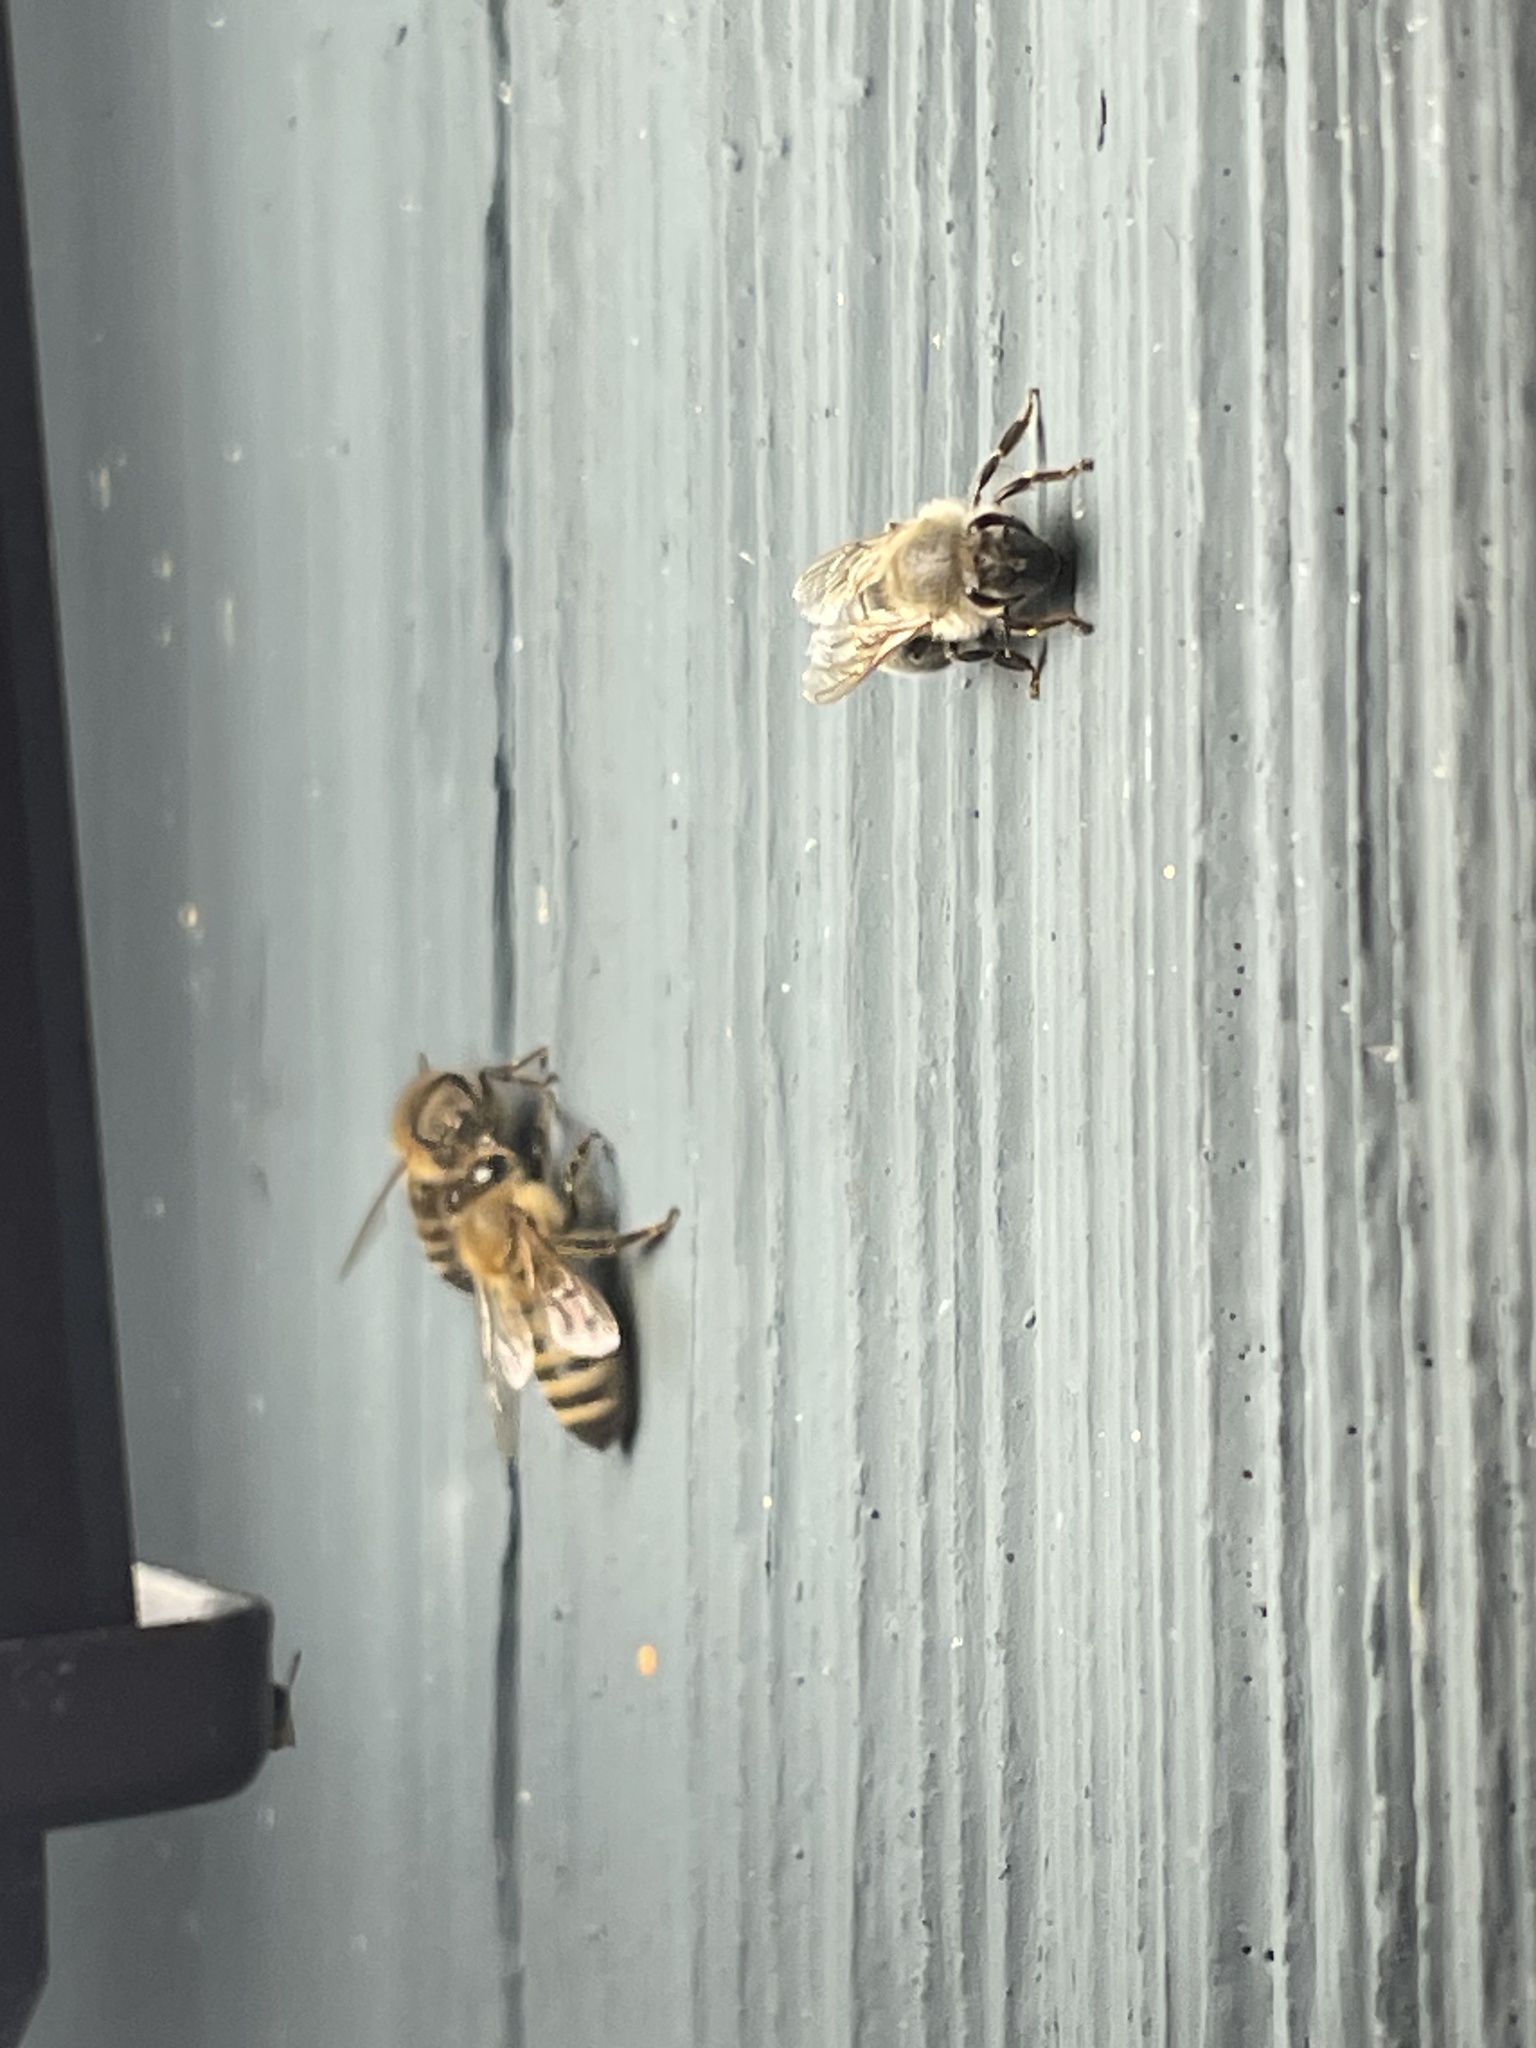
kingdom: Animalia
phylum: Arthropoda
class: Insecta
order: Hymenoptera
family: Apidae
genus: Apis
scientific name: Apis mellifera
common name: Honey bee
